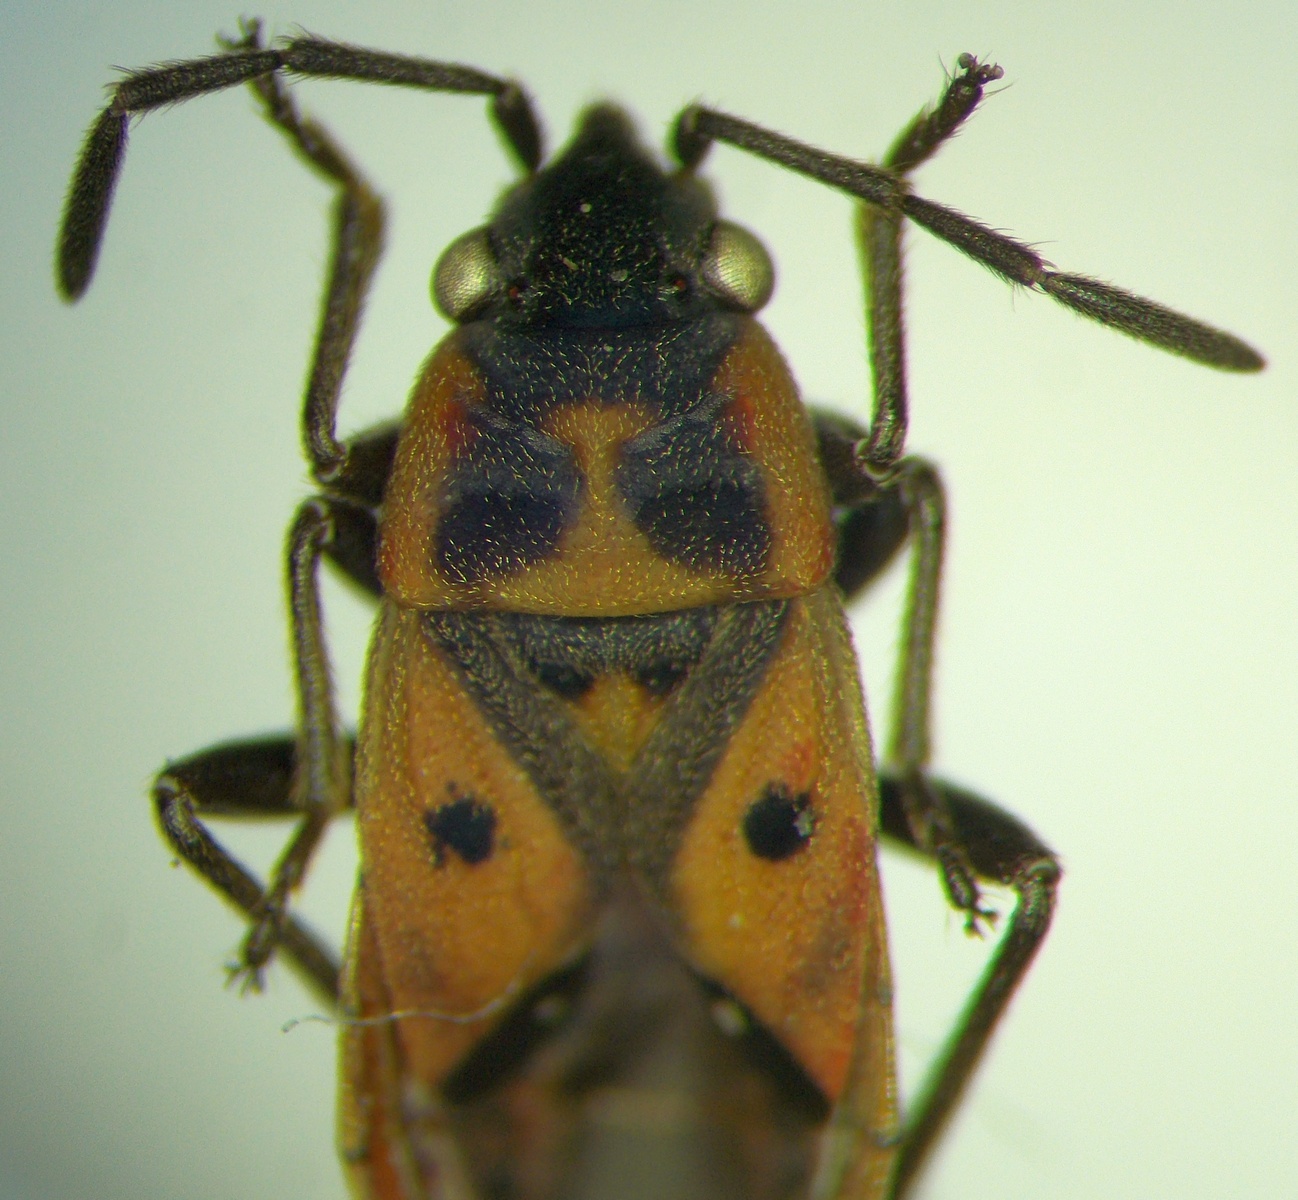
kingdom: Animalia
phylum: Arthropoda
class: Insecta
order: Hemiptera
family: Lygaeidae
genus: Melanocoryphus
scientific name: Melanocoryphus tristrami
